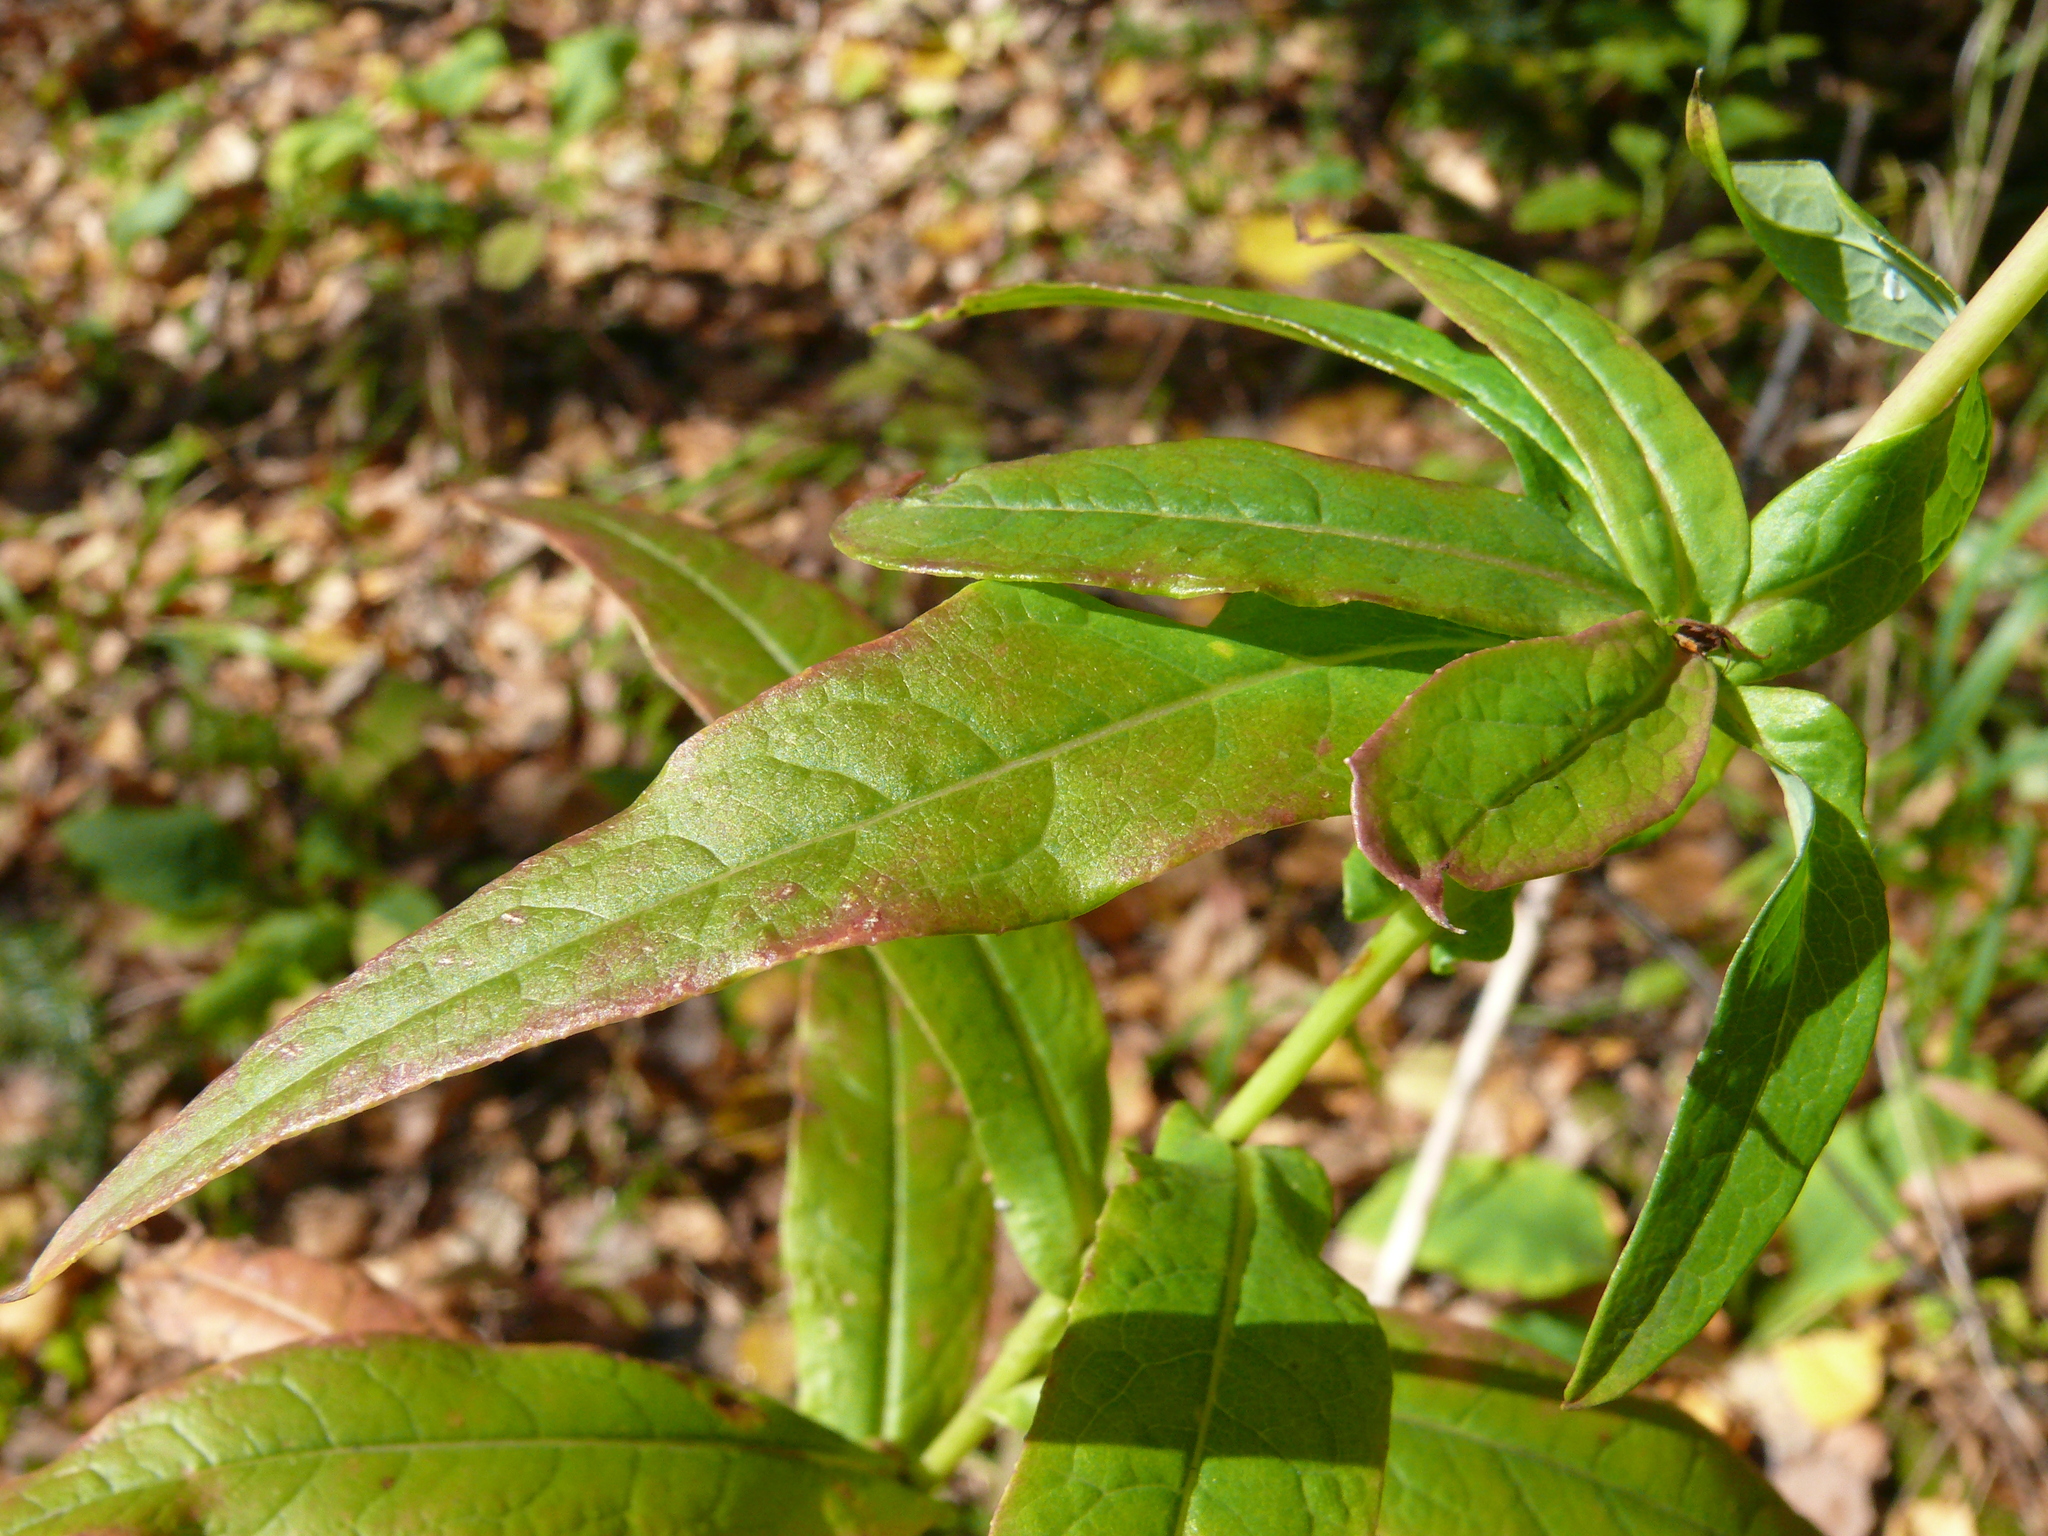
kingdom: Plantae
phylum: Tracheophyta
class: Magnoliopsida
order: Asterales
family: Asteraceae
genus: Lactuca
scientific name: Lactuca sibirica
